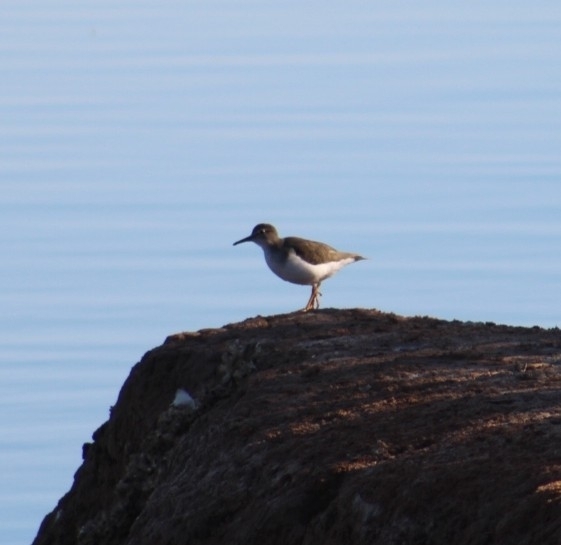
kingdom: Animalia
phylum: Chordata
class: Aves
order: Charadriiformes
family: Scolopacidae
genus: Actitis
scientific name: Actitis macularius
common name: Spotted sandpiper
